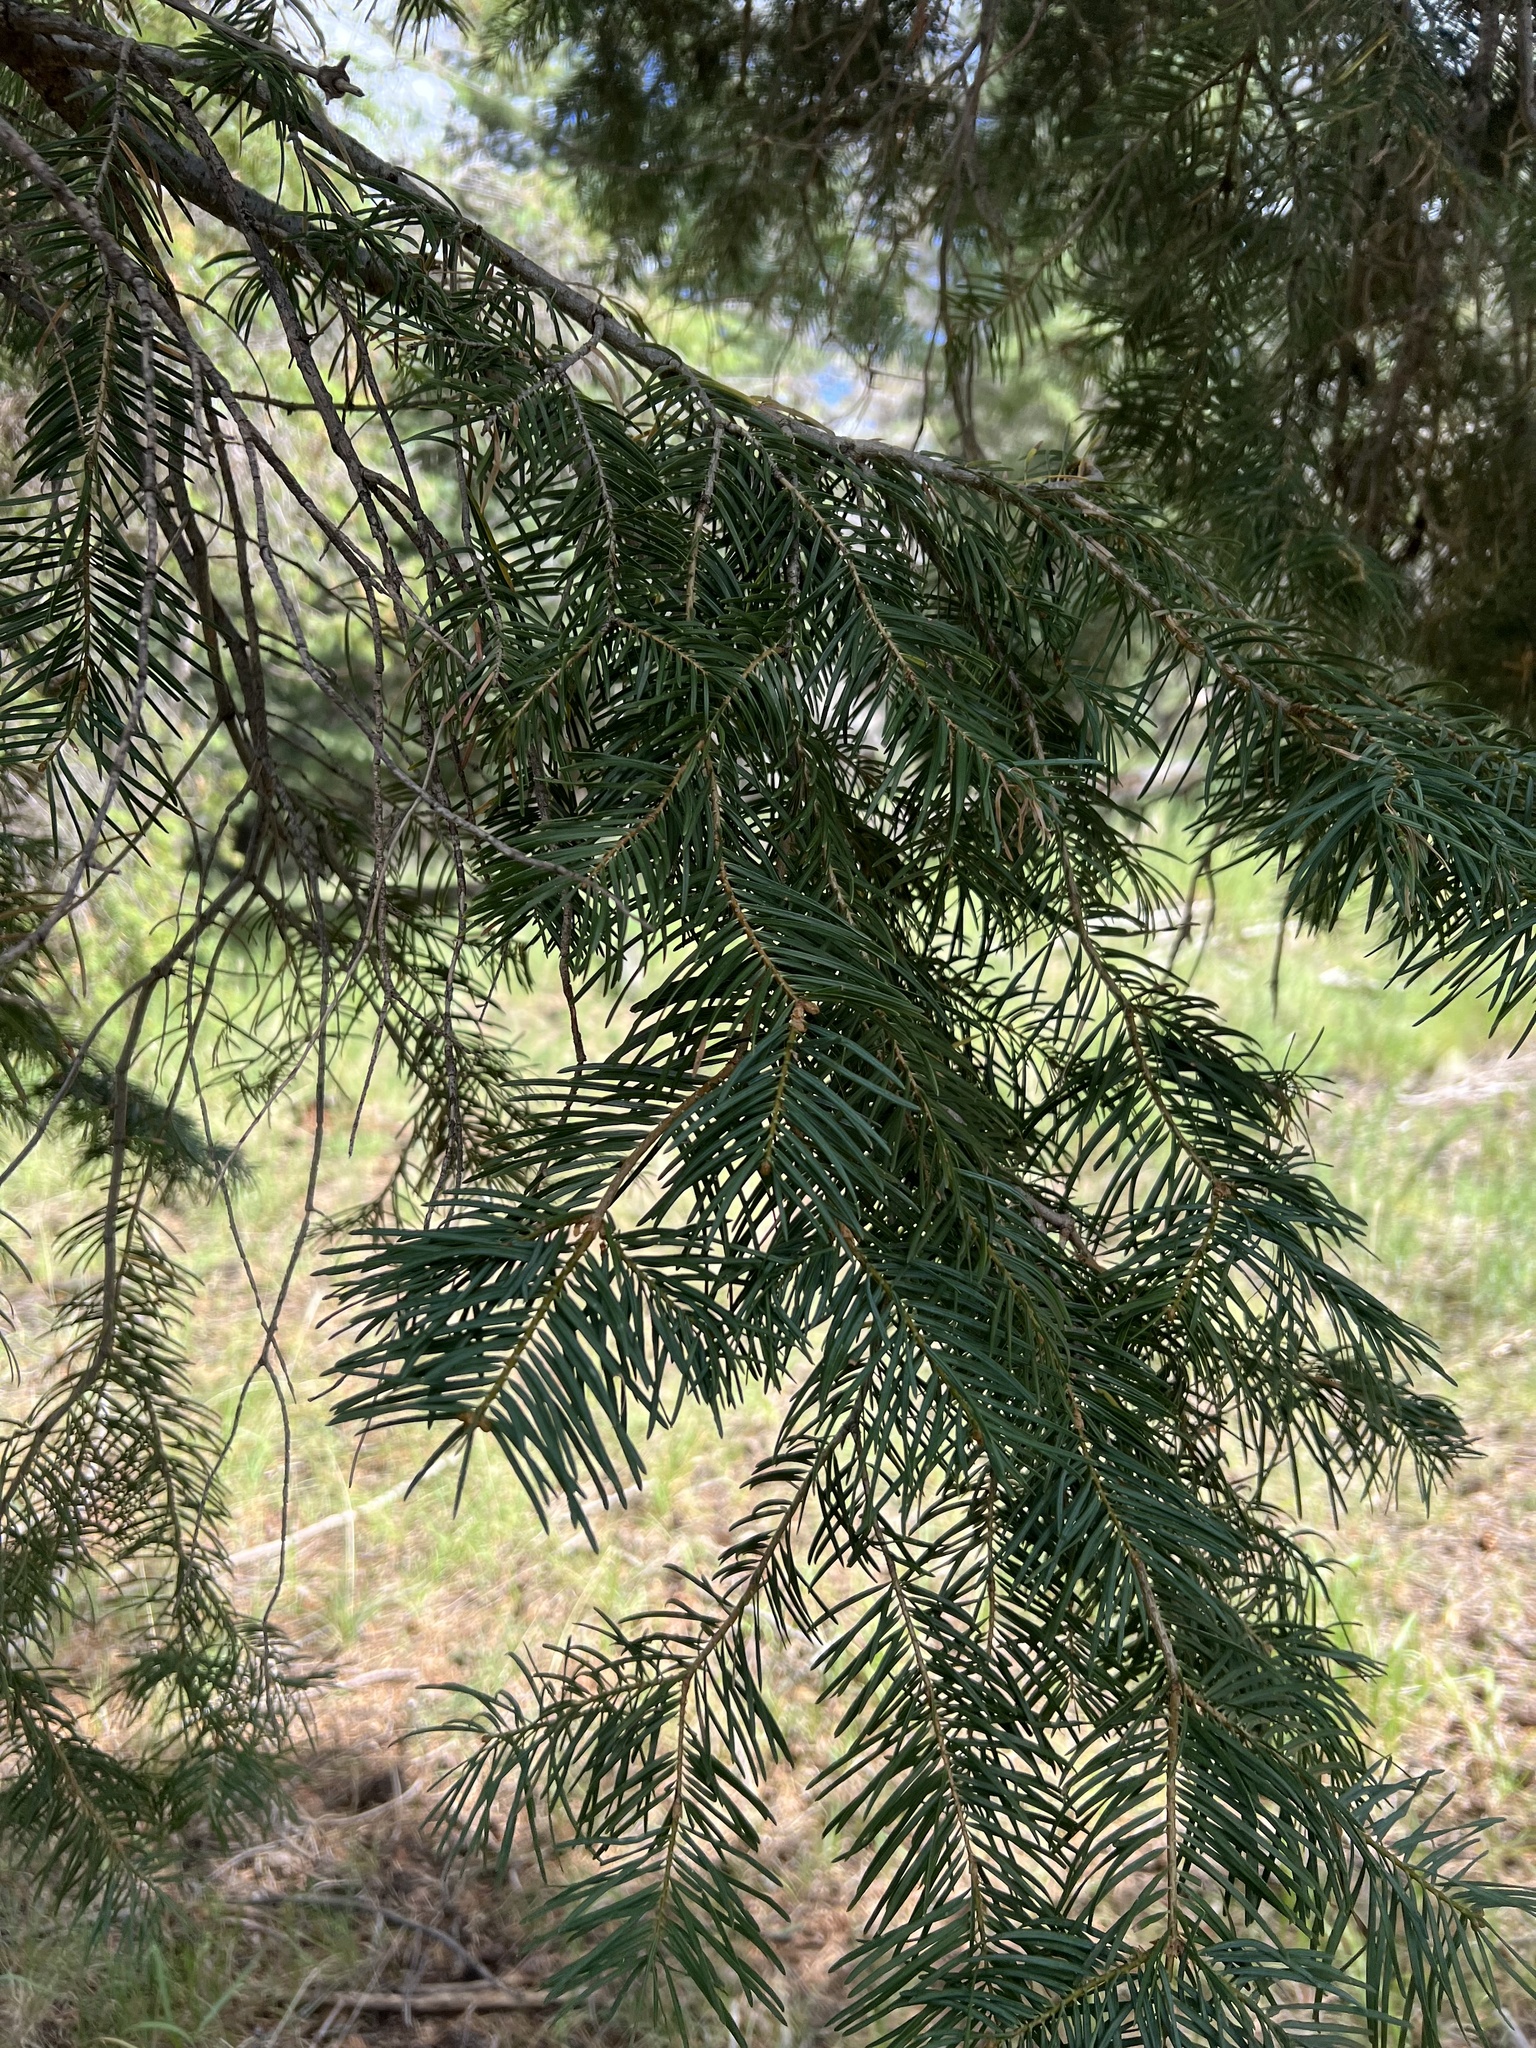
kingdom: Plantae
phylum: Tracheophyta
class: Pinopsida
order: Pinales
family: Pinaceae
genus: Abies
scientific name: Abies concolor
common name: Colorado fir
